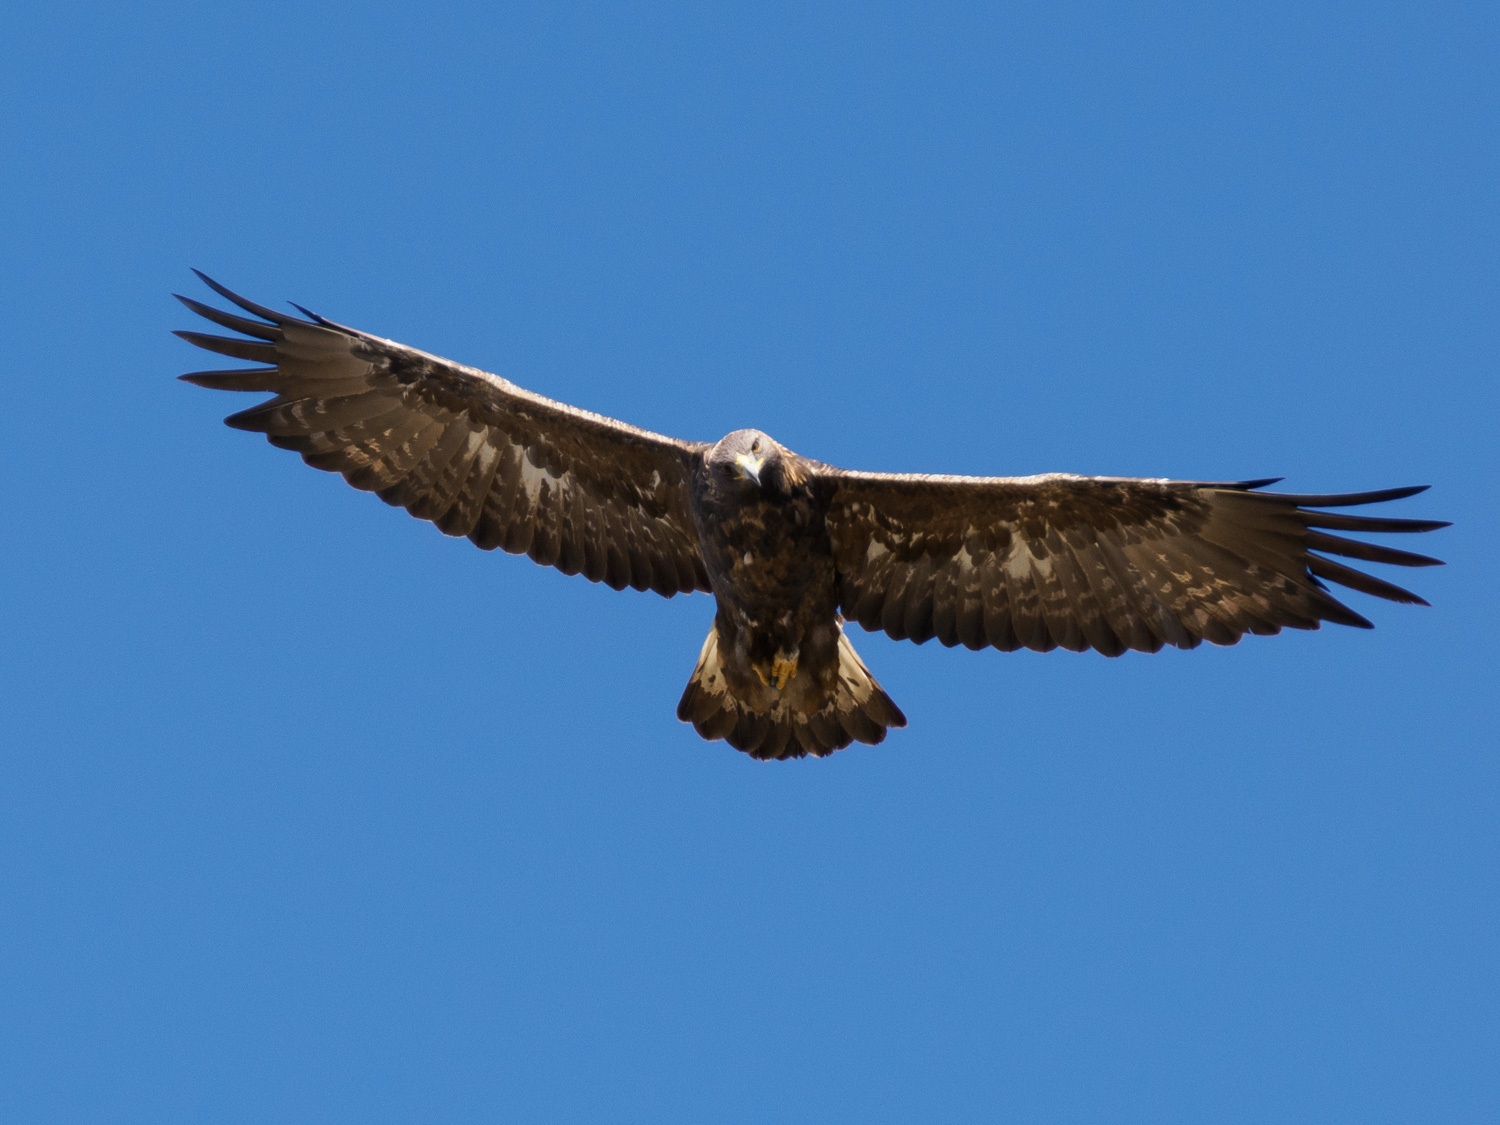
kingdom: Animalia
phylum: Chordata
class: Aves
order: Accipitriformes
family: Accipitridae
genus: Aquila
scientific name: Aquila chrysaetos
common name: Golden eagle
